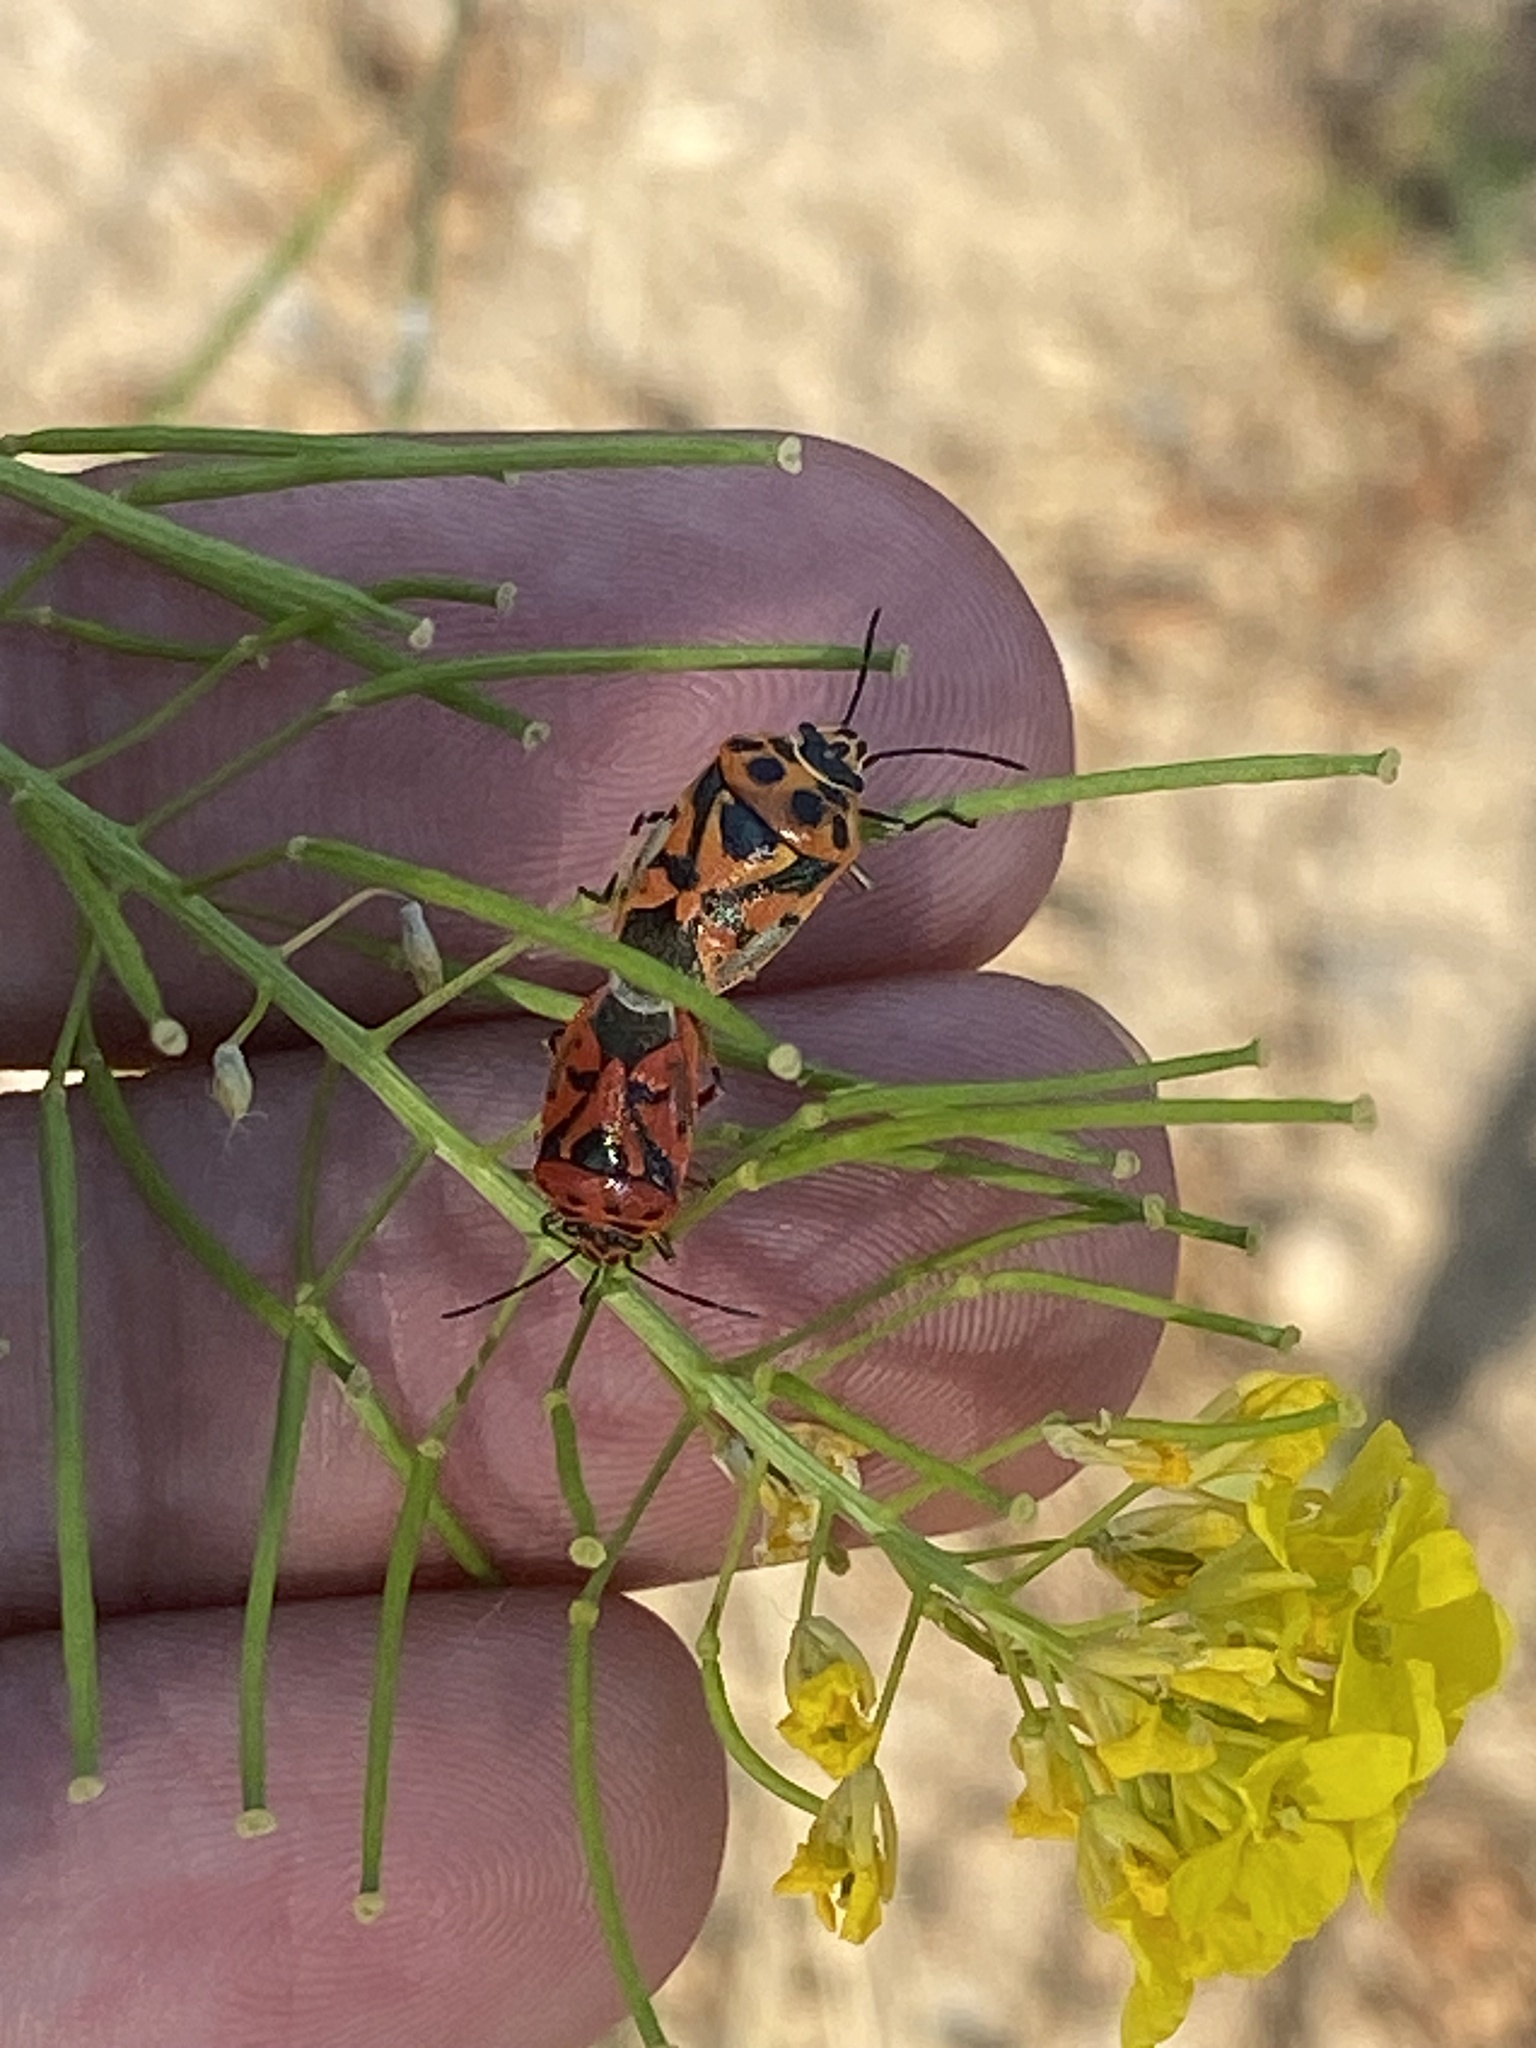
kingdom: Animalia
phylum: Arthropoda
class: Insecta
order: Hemiptera
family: Pentatomidae
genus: Eurydema
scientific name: Eurydema ornata
